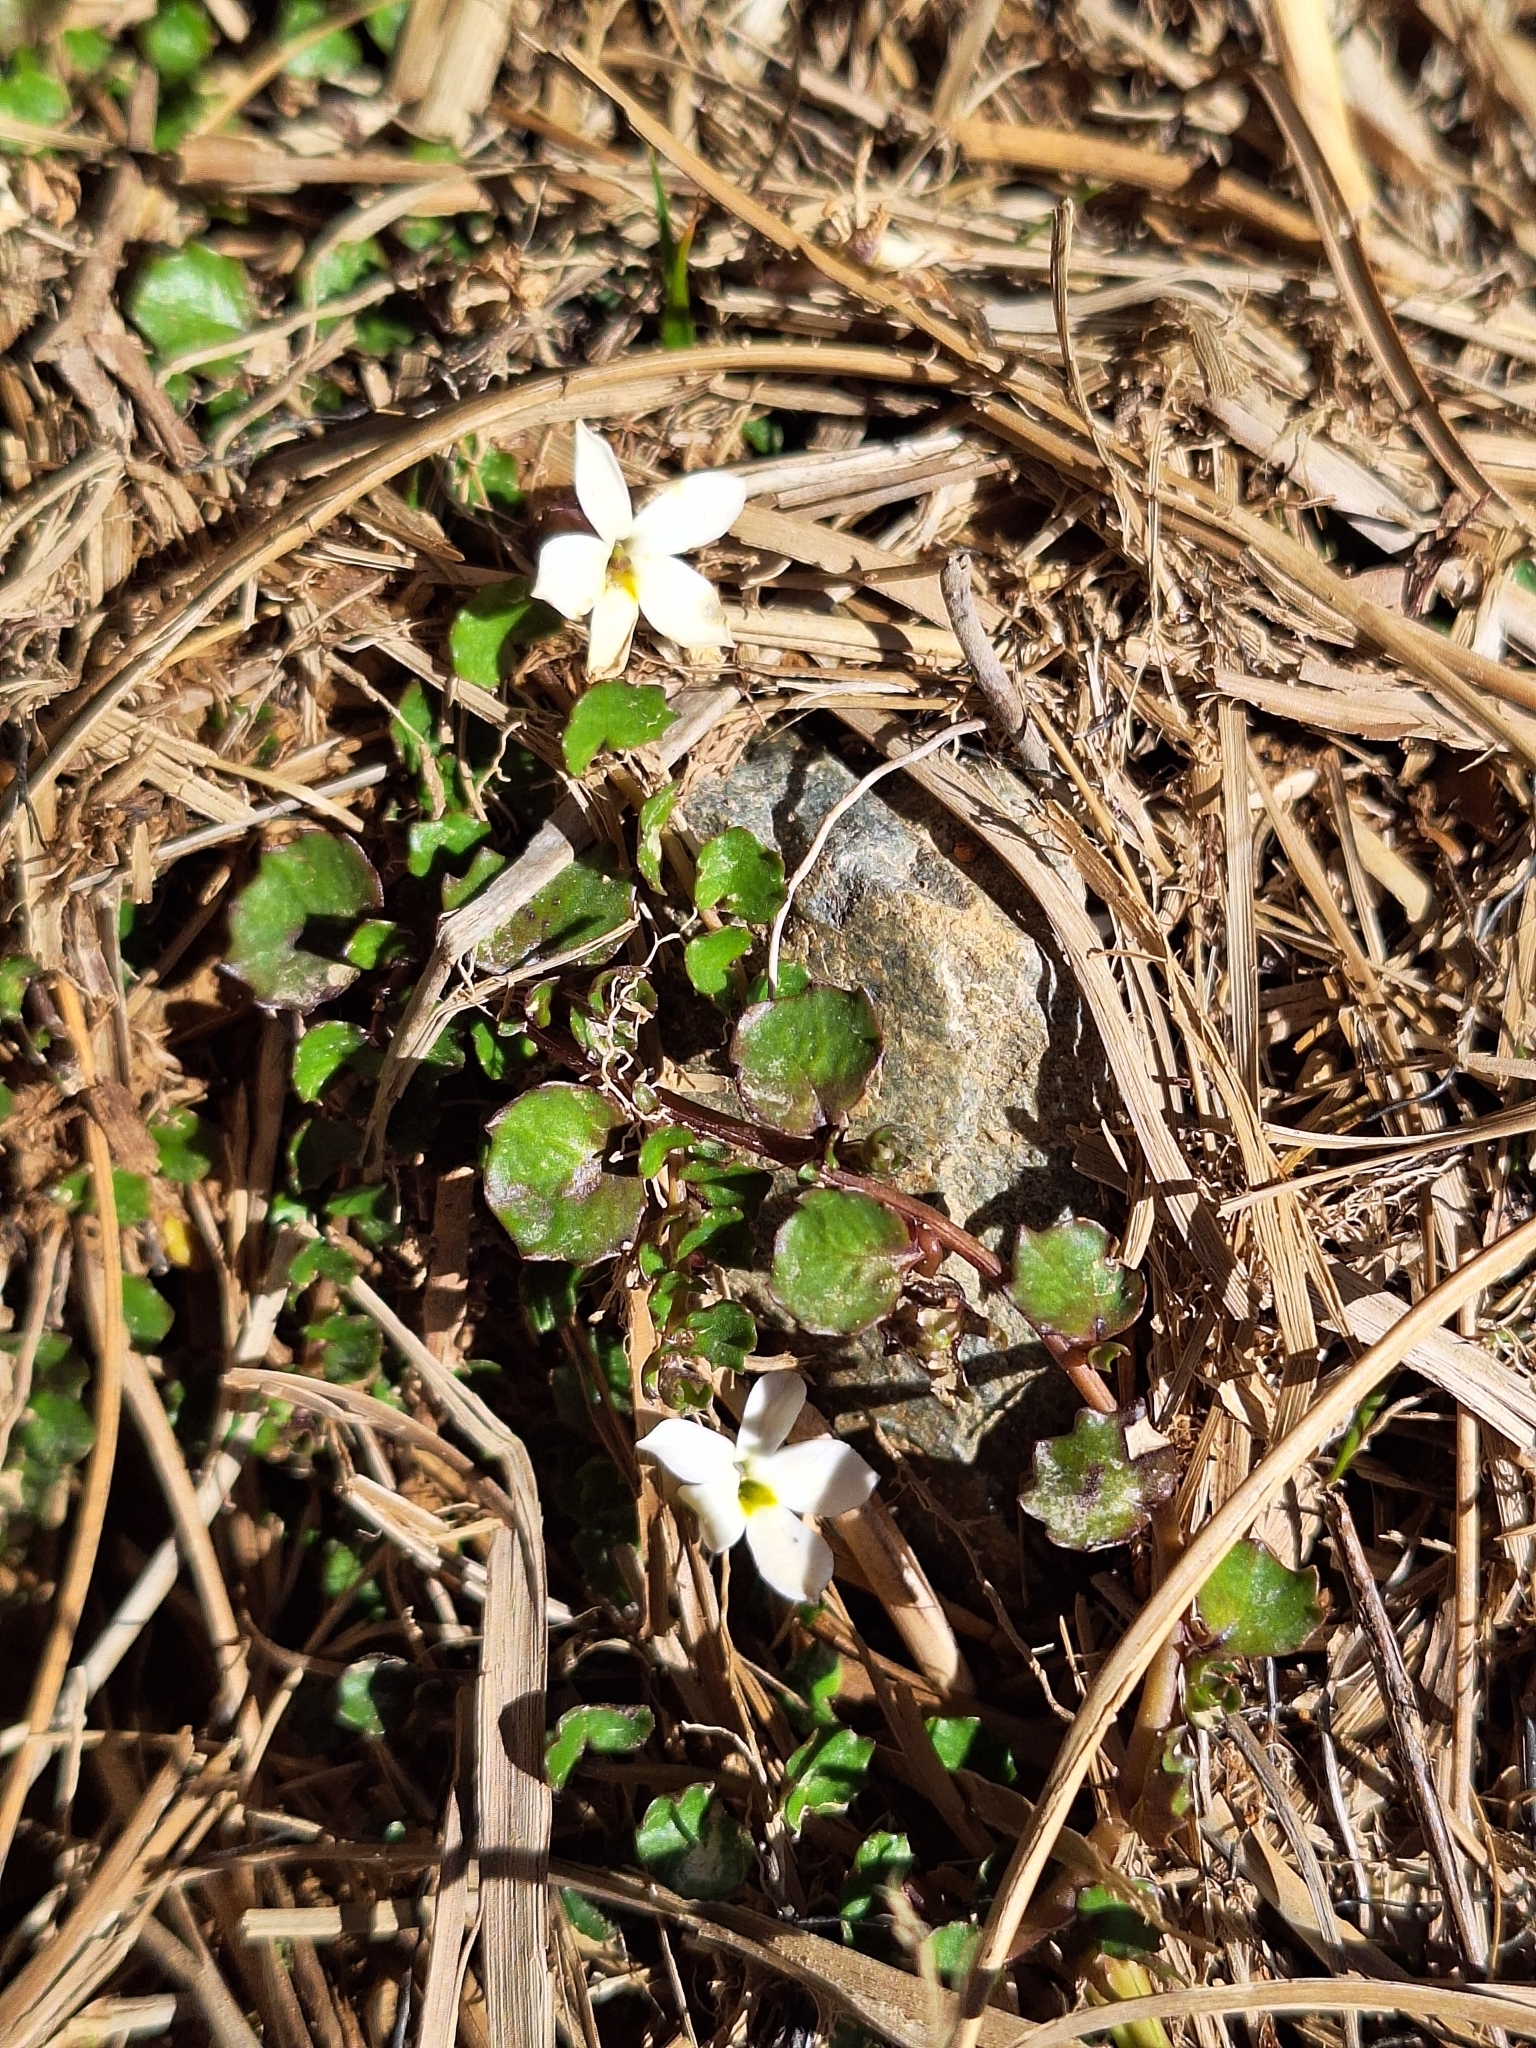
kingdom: Plantae
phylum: Tracheophyta
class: Magnoliopsida
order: Asterales
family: Campanulaceae
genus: Lobelia
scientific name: Lobelia macrodon
